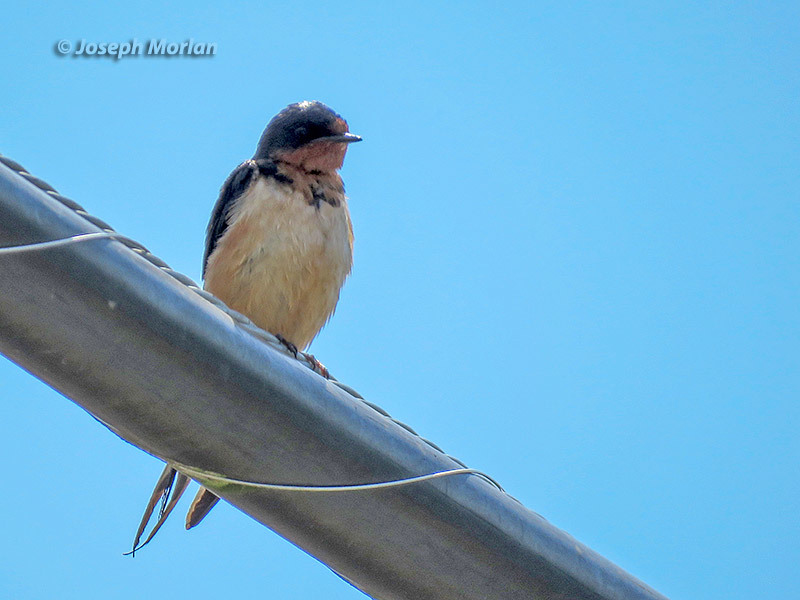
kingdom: Animalia
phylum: Chordata
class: Aves
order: Passeriformes
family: Hirundinidae
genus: Hirundo
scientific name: Hirundo rustica
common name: Barn swallow
